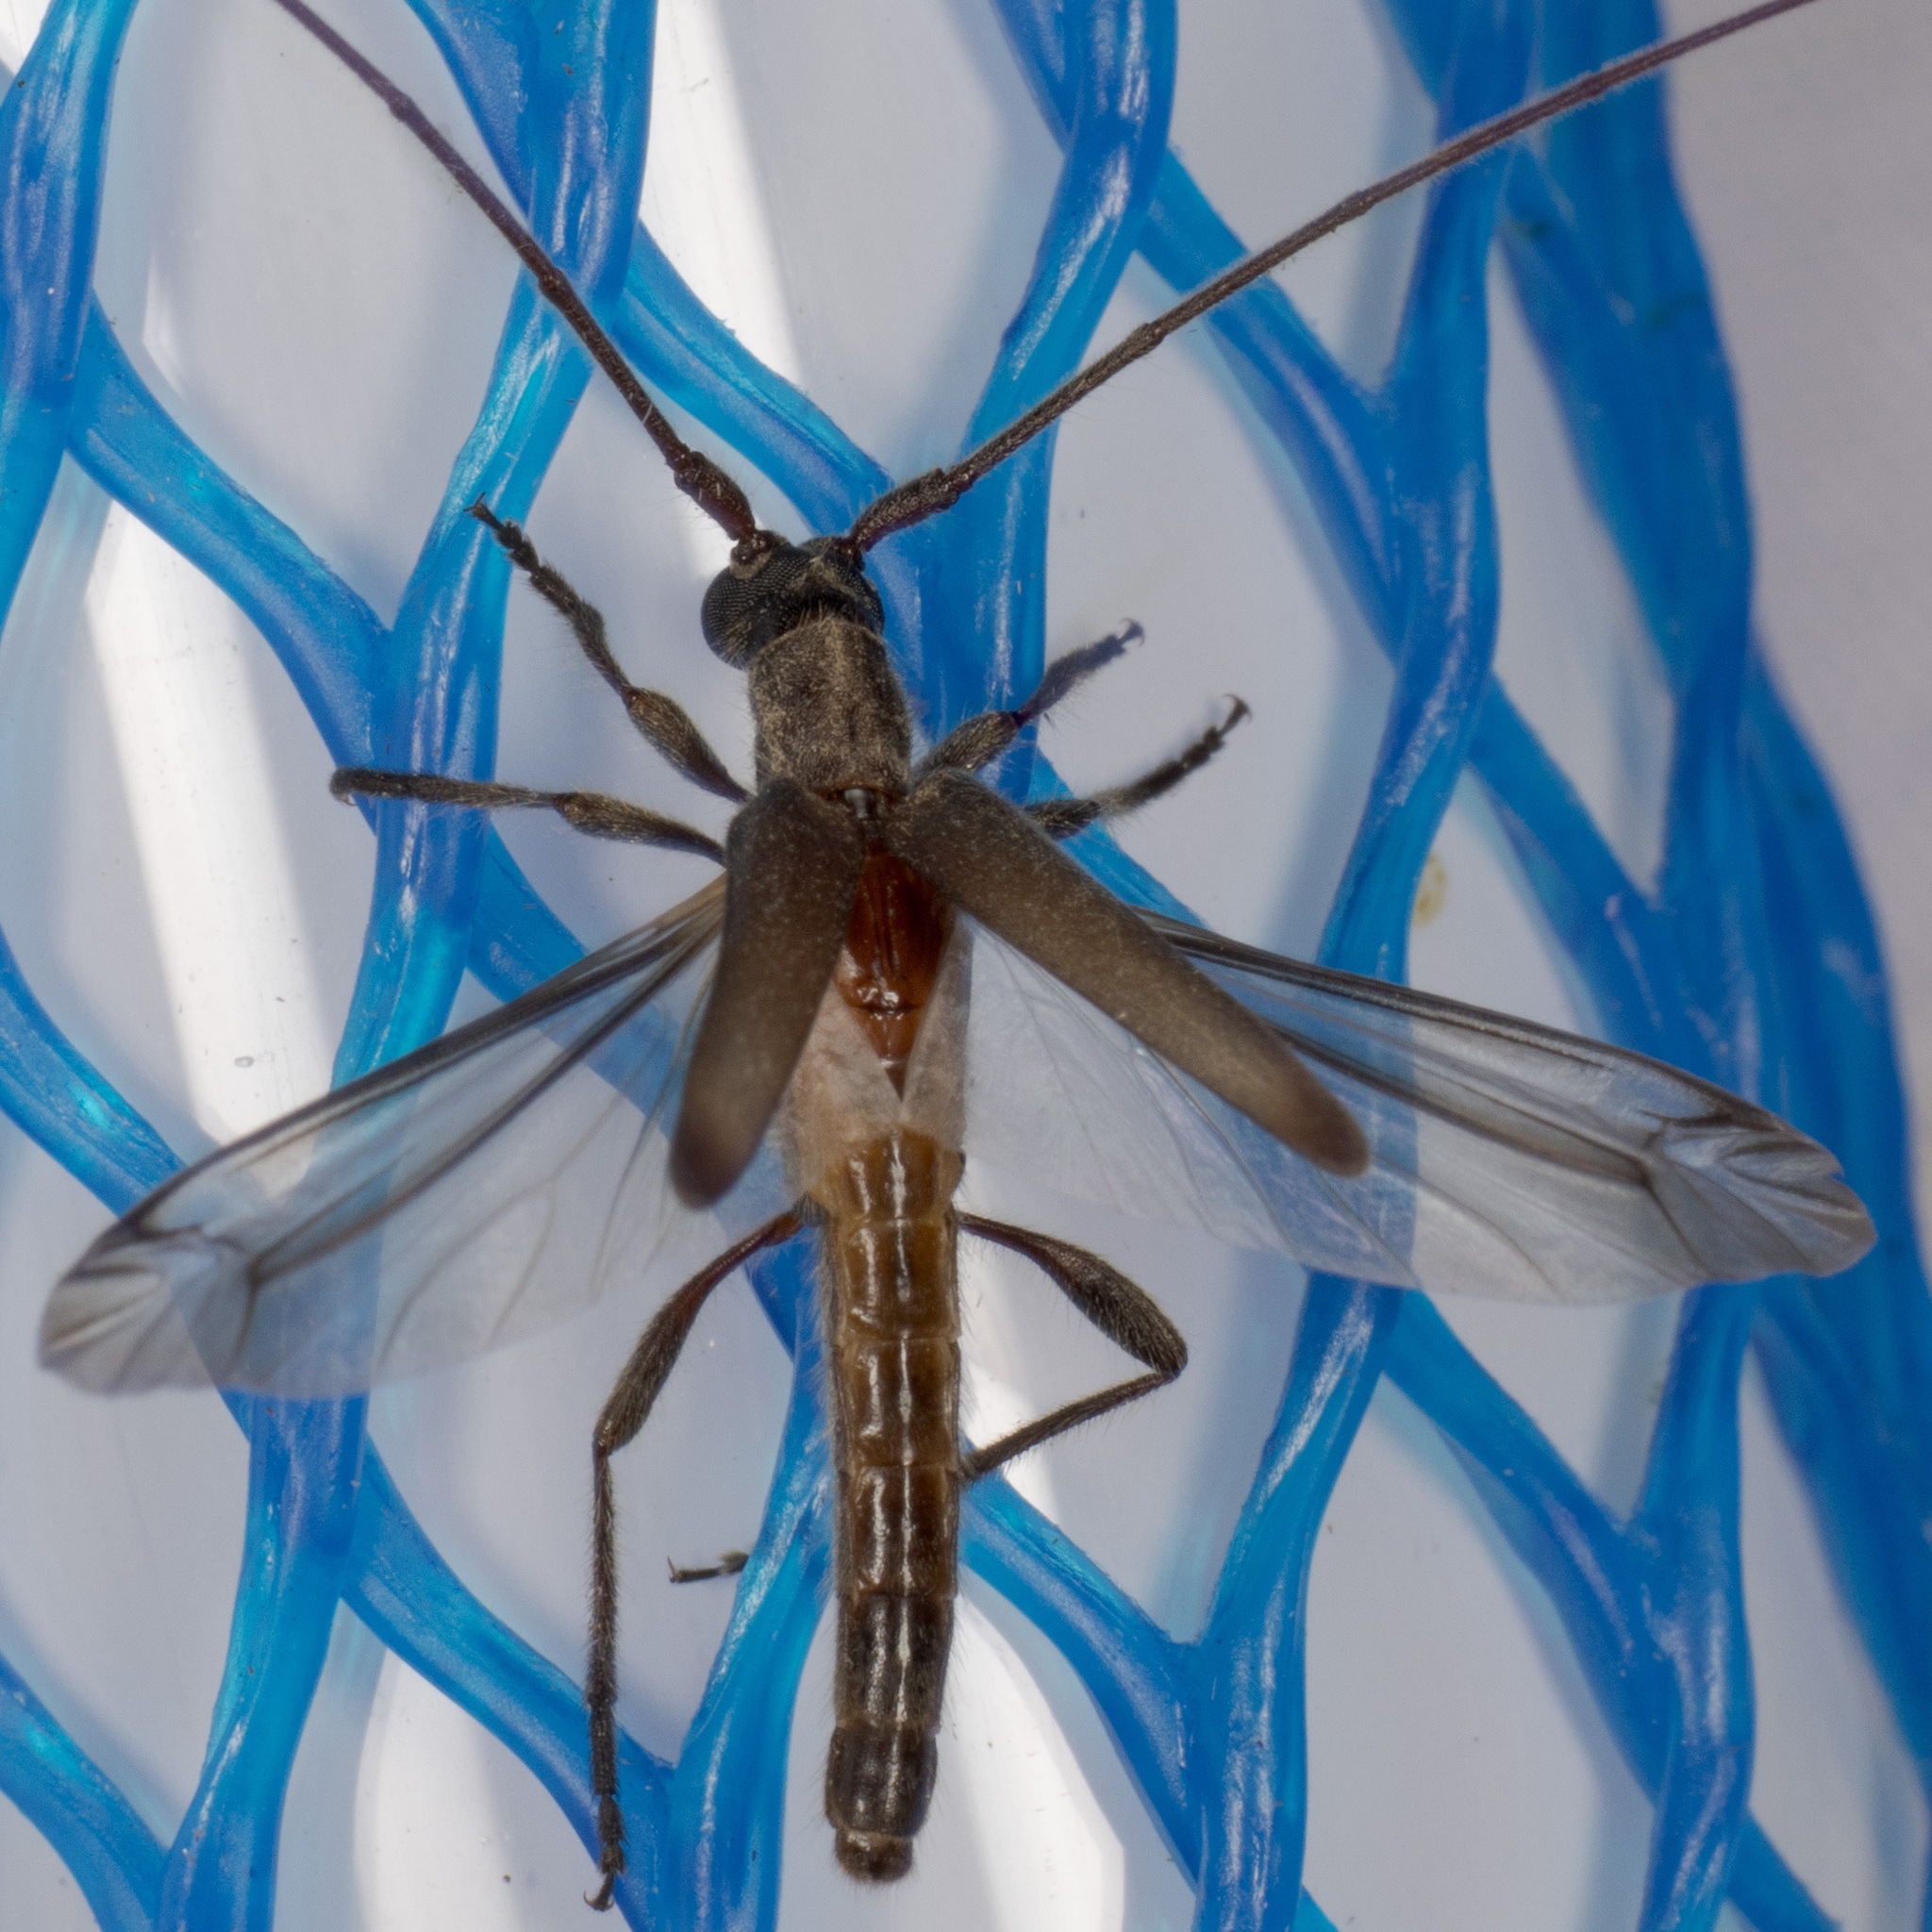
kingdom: Animalia
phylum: Arthropoda
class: Insecta
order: Coleoptera
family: Cerambycidae
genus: Styloxus
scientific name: Styloxus fulleri
